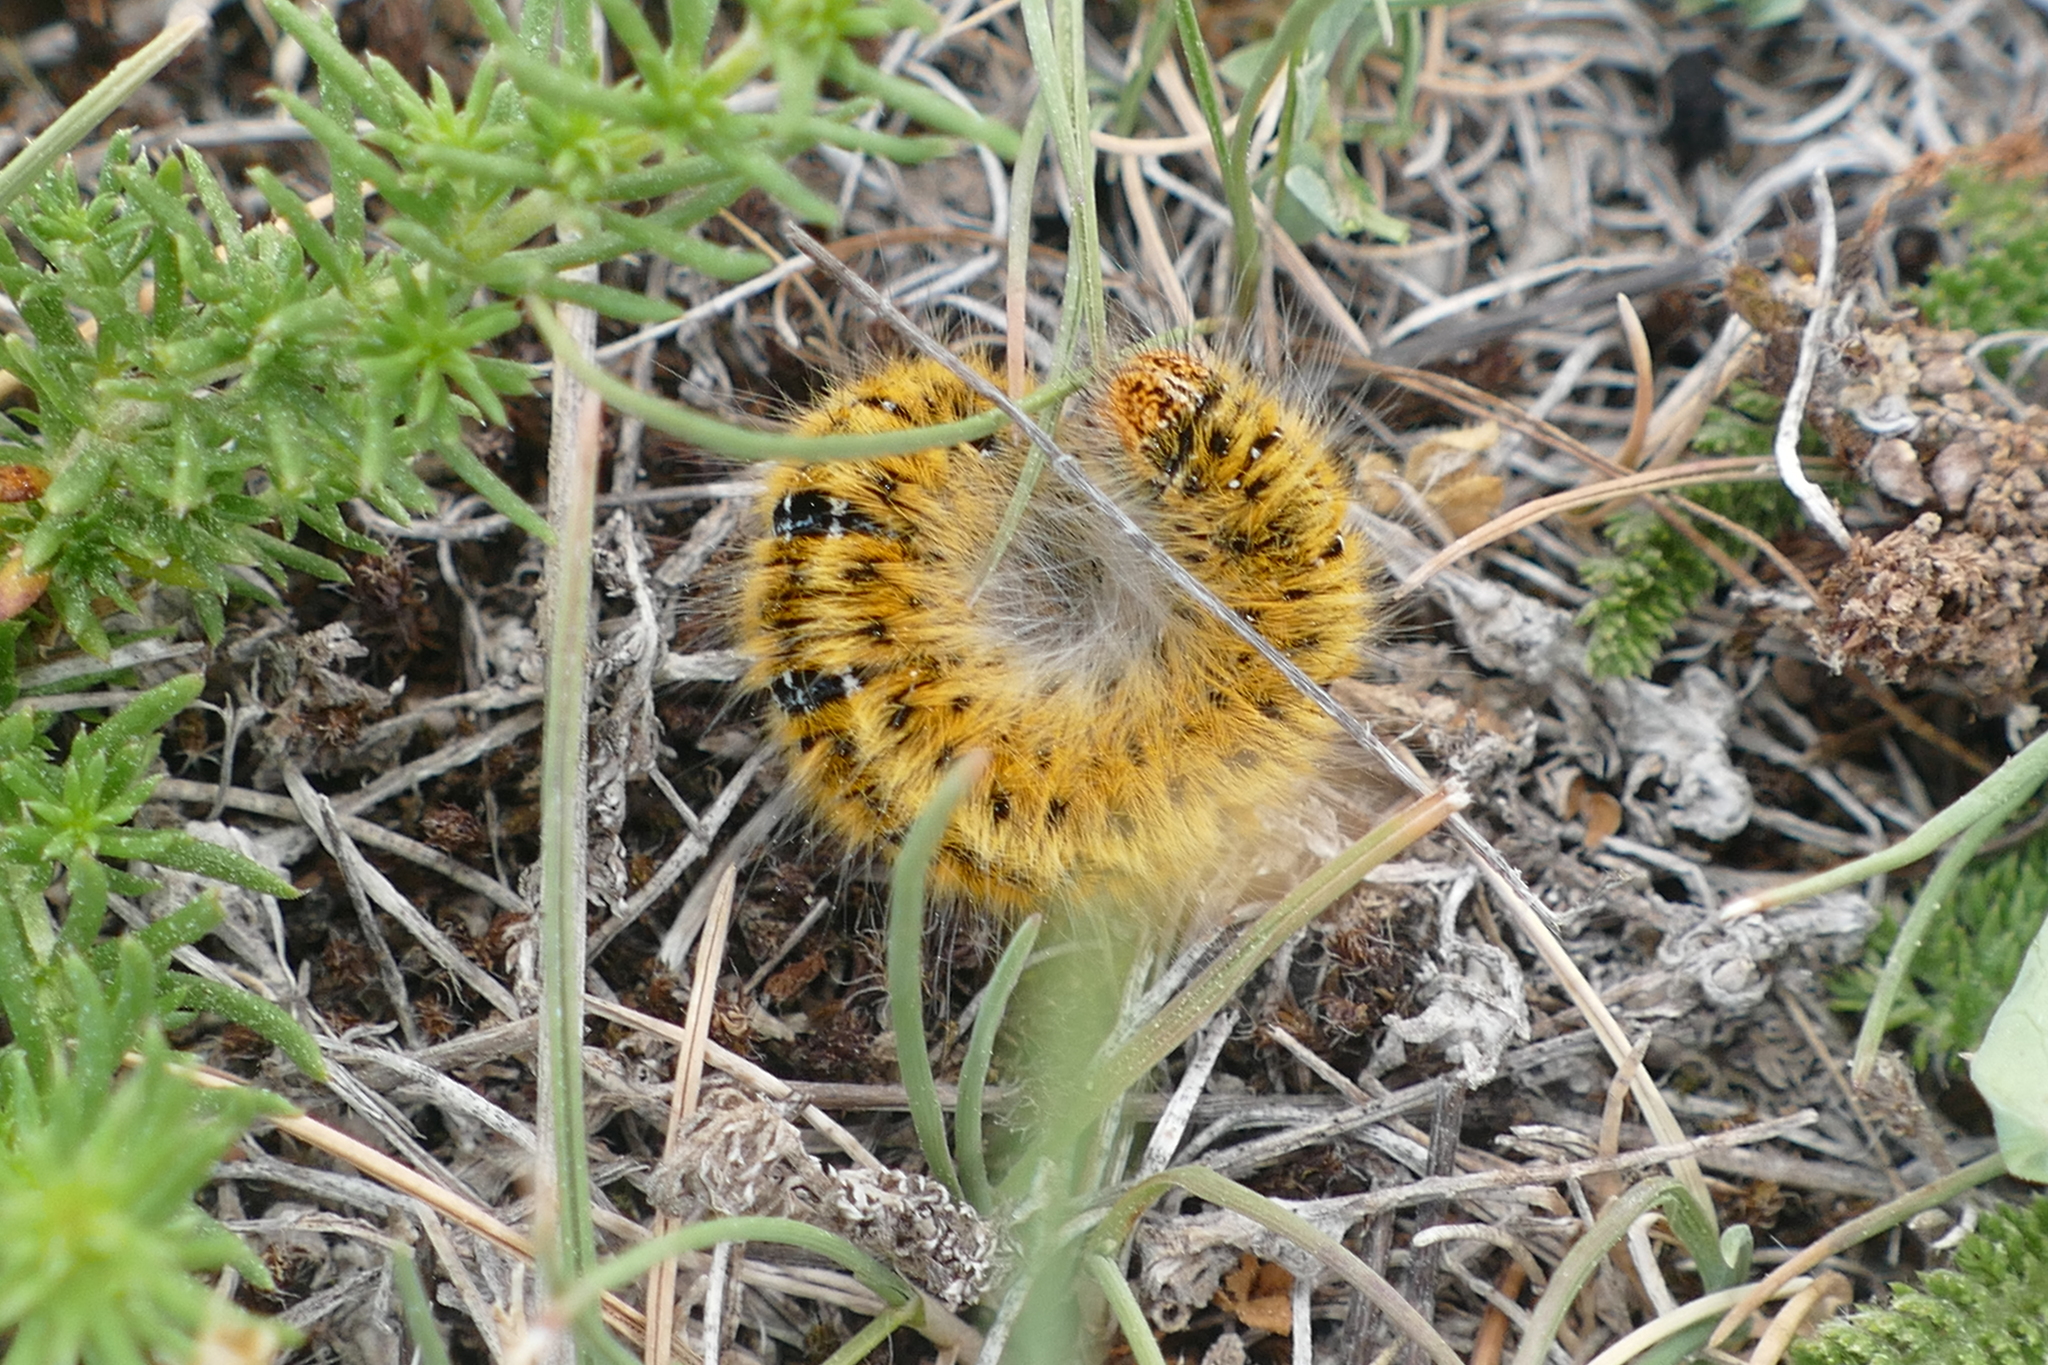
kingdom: Animalia
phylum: Arthropoda
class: Insecta
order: Lepidoptera
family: Lasiocampidae
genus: Lasiocampa
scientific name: Lasiocampa trifolii
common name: Grass eggar
